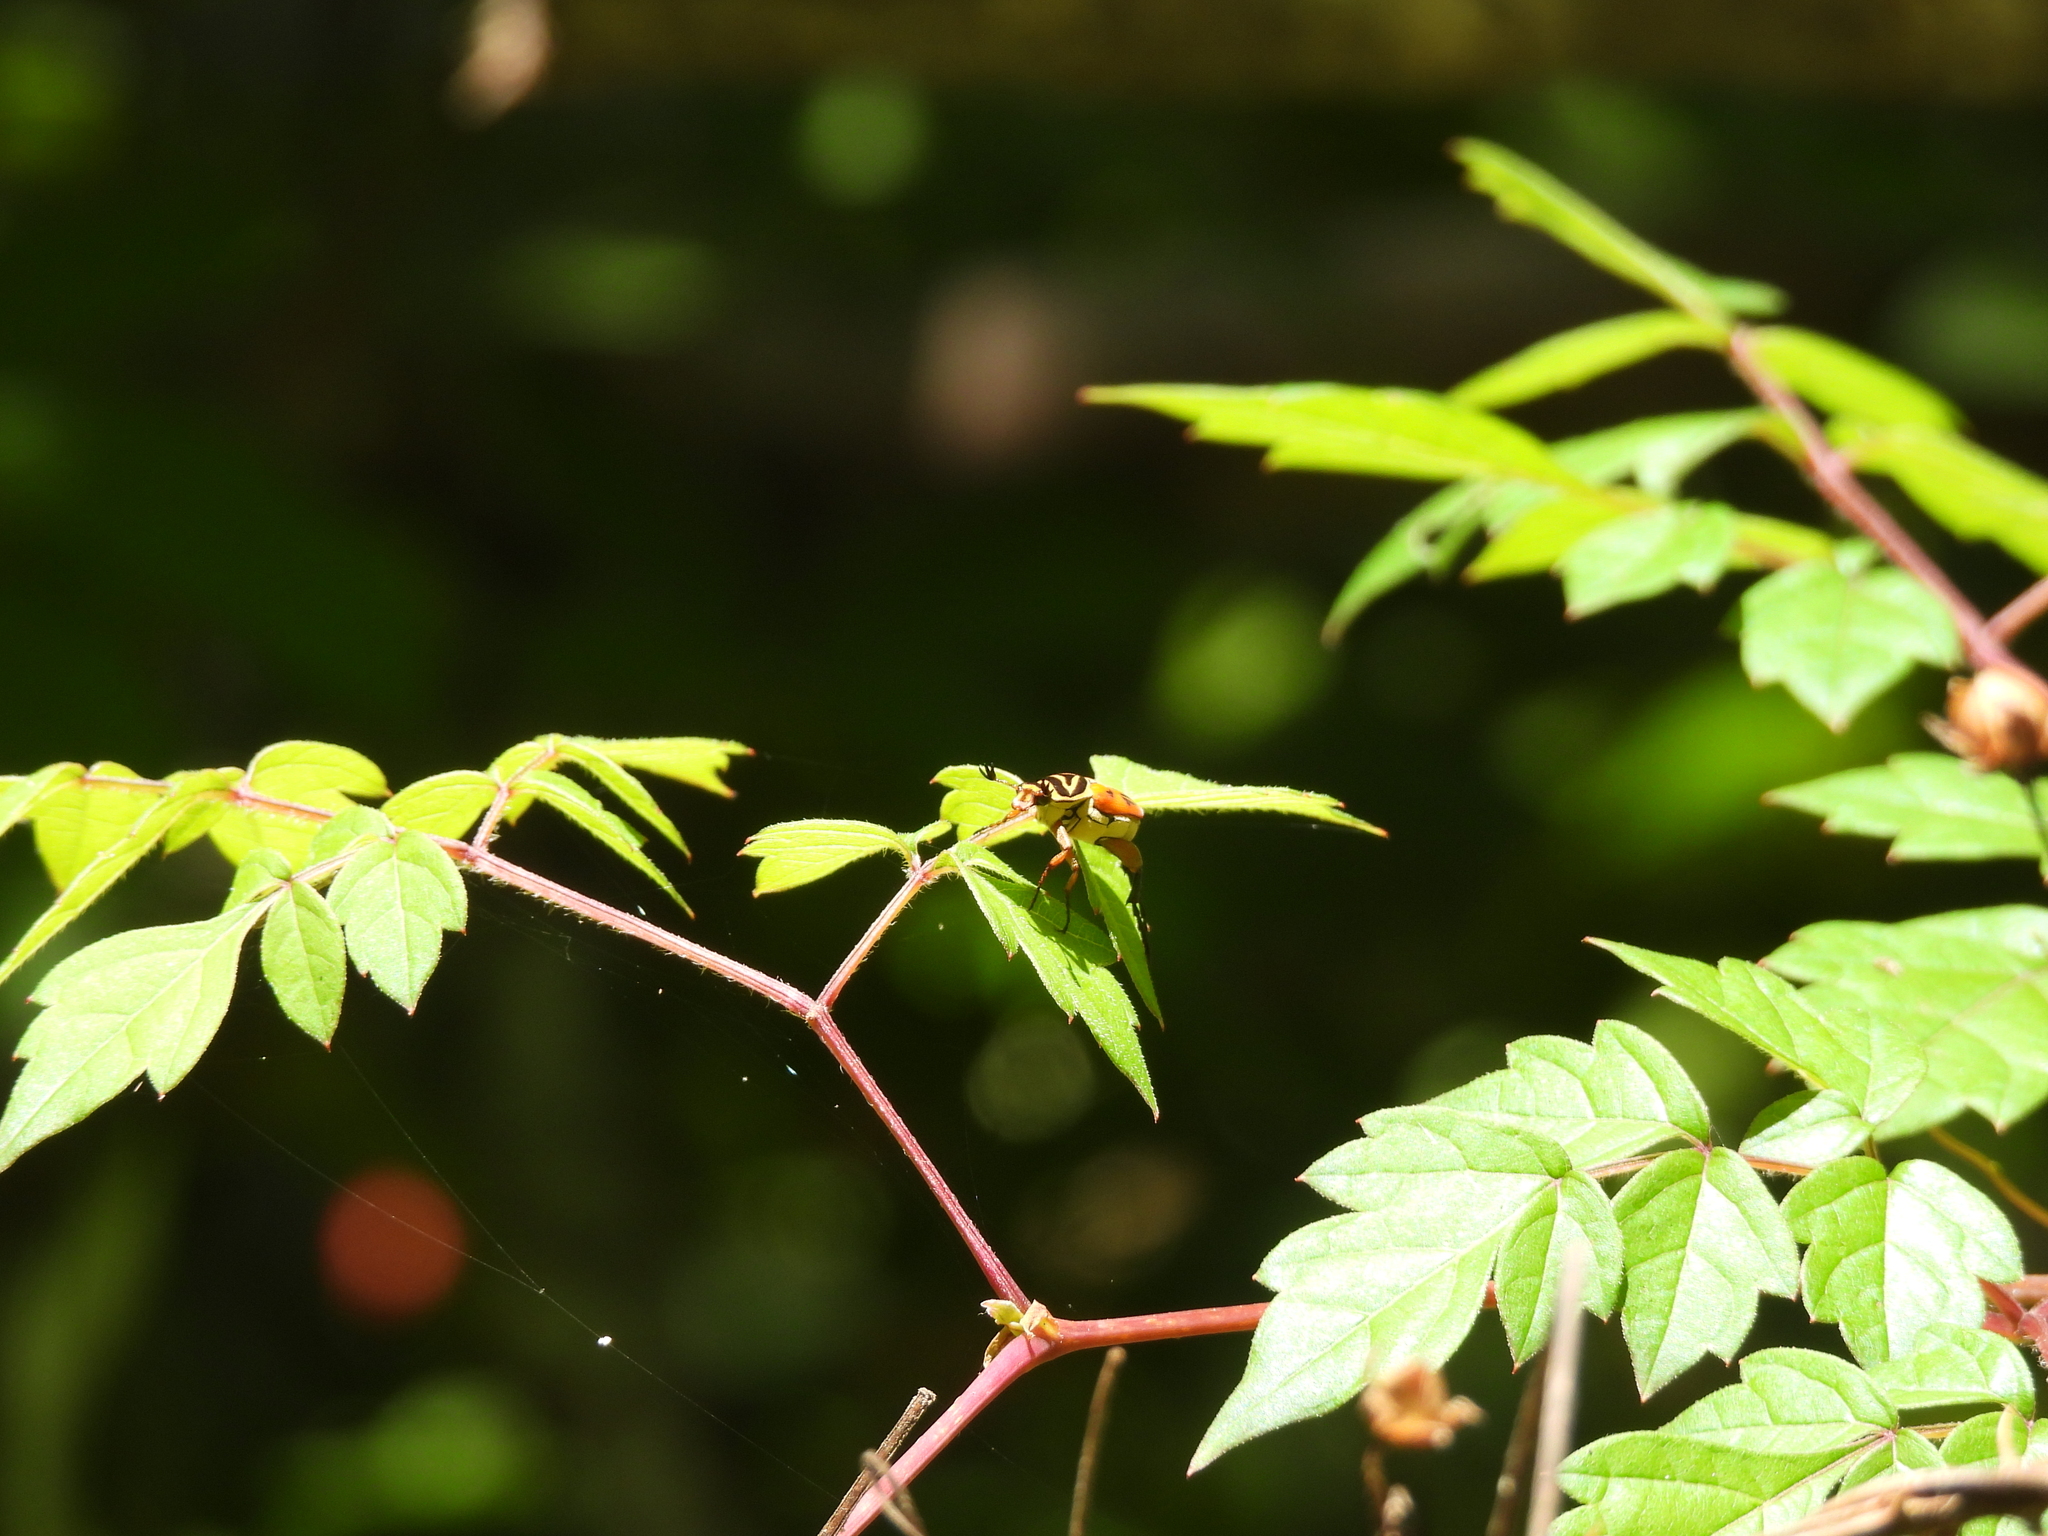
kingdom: Animalia
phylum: Arthropoda
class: Insecta
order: Coleoptera
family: Scarabaeidae
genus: Trigonopeltastes
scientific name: Trigonopeltastes delta
